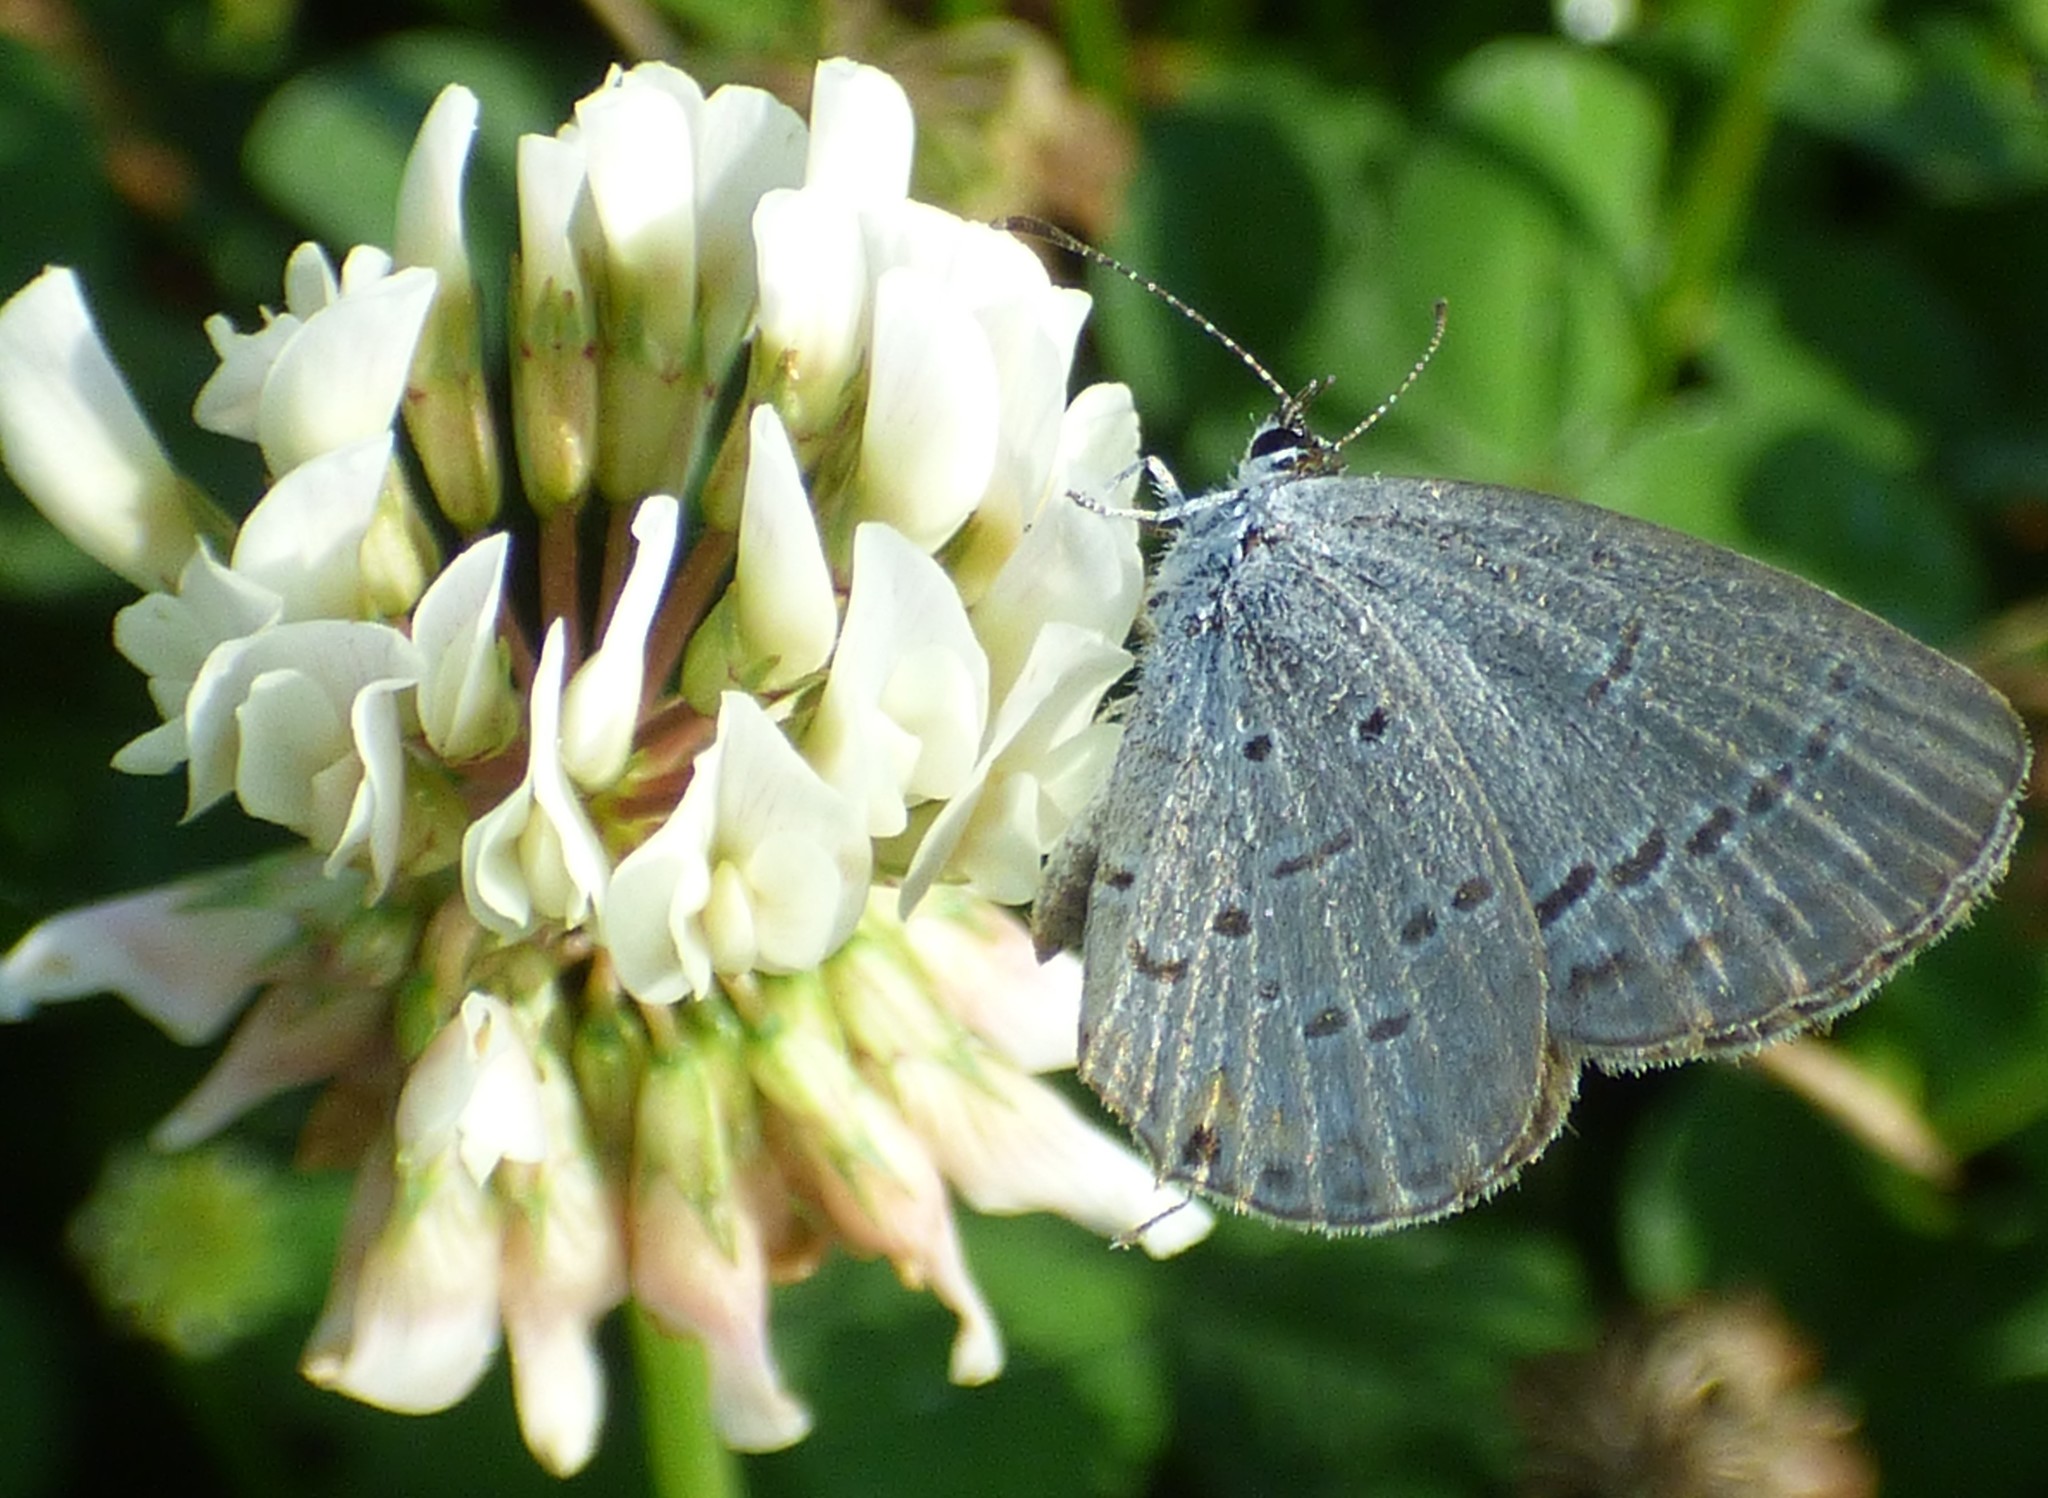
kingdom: Animalia
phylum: Arthropoda
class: Insecta
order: Lepidoptera
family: Lycaenidae
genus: Elkalyce
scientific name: Elkalyce comyntas
